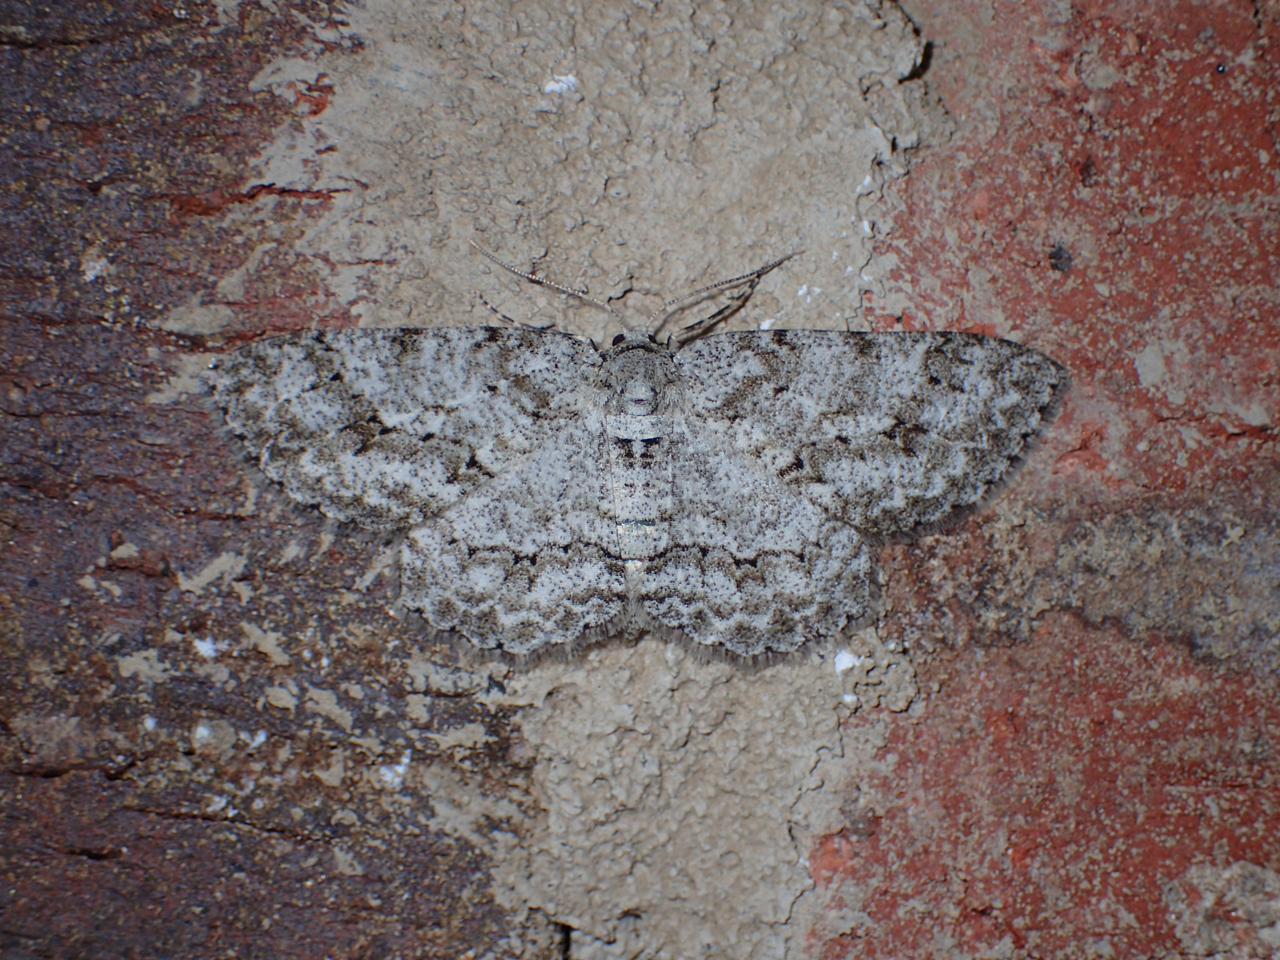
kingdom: Animalia
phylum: Arthropoda
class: Insecta
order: Lepidoptera
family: Geometridae
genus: Ectropis
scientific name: Ectropis crepuscularia
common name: Engrailed
